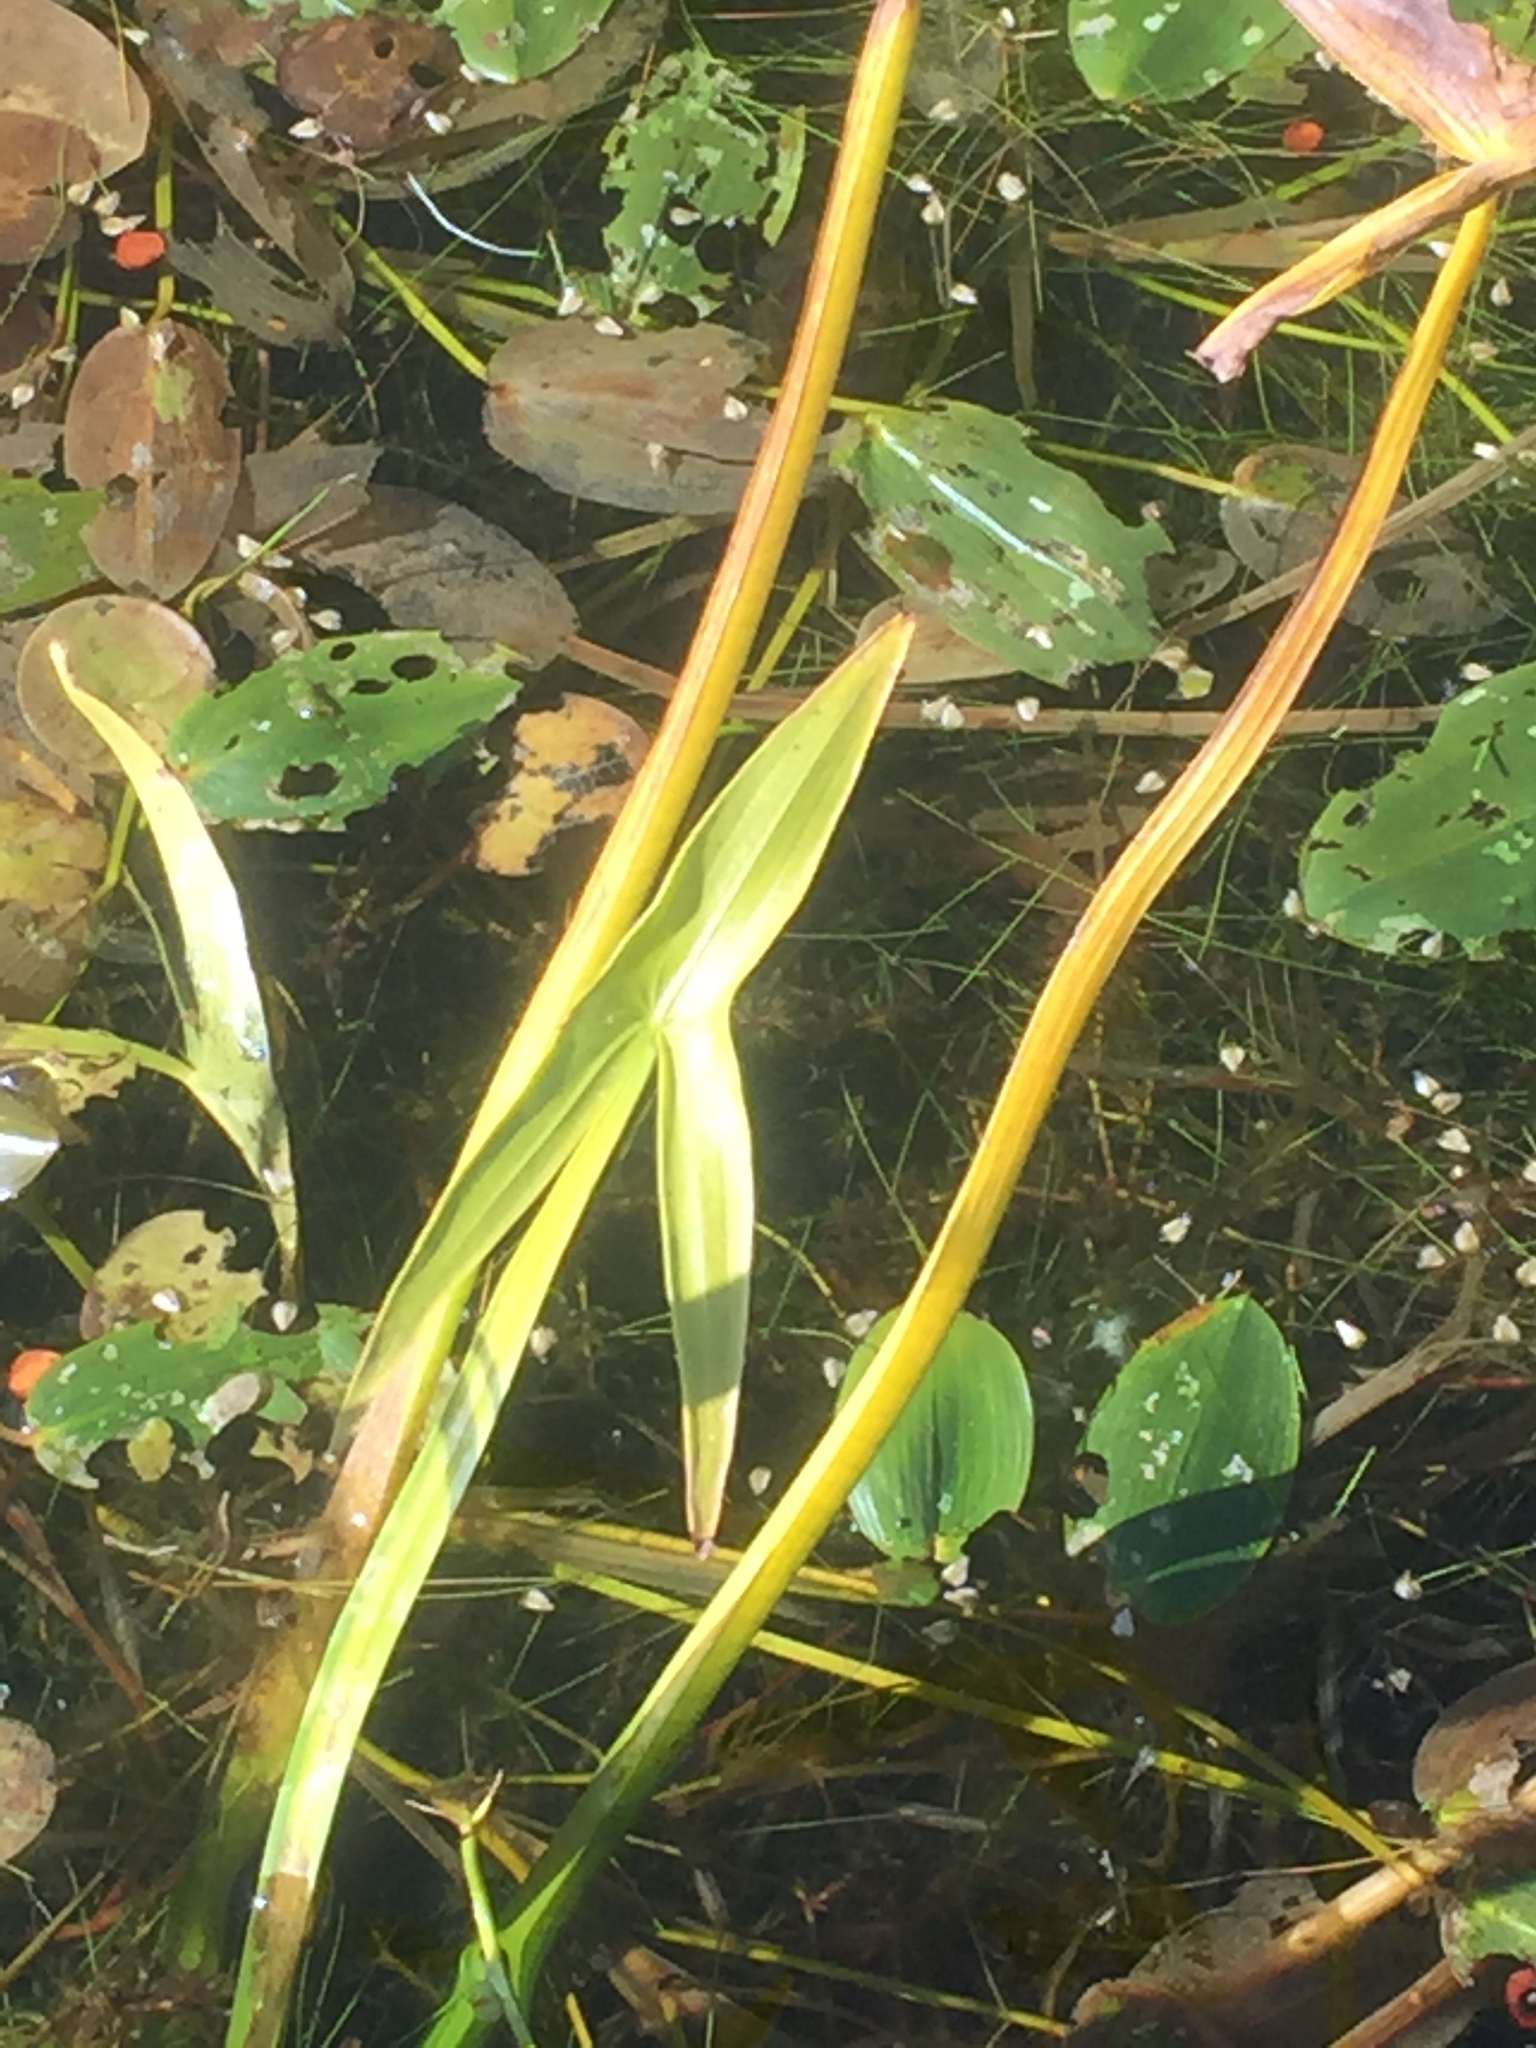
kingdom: Plantae
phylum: Tracheophyta
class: Liliopsida
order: Alismatales
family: Alismataceae
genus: Sagittaria
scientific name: Sagittaria sagittifolia
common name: Arrowhead
